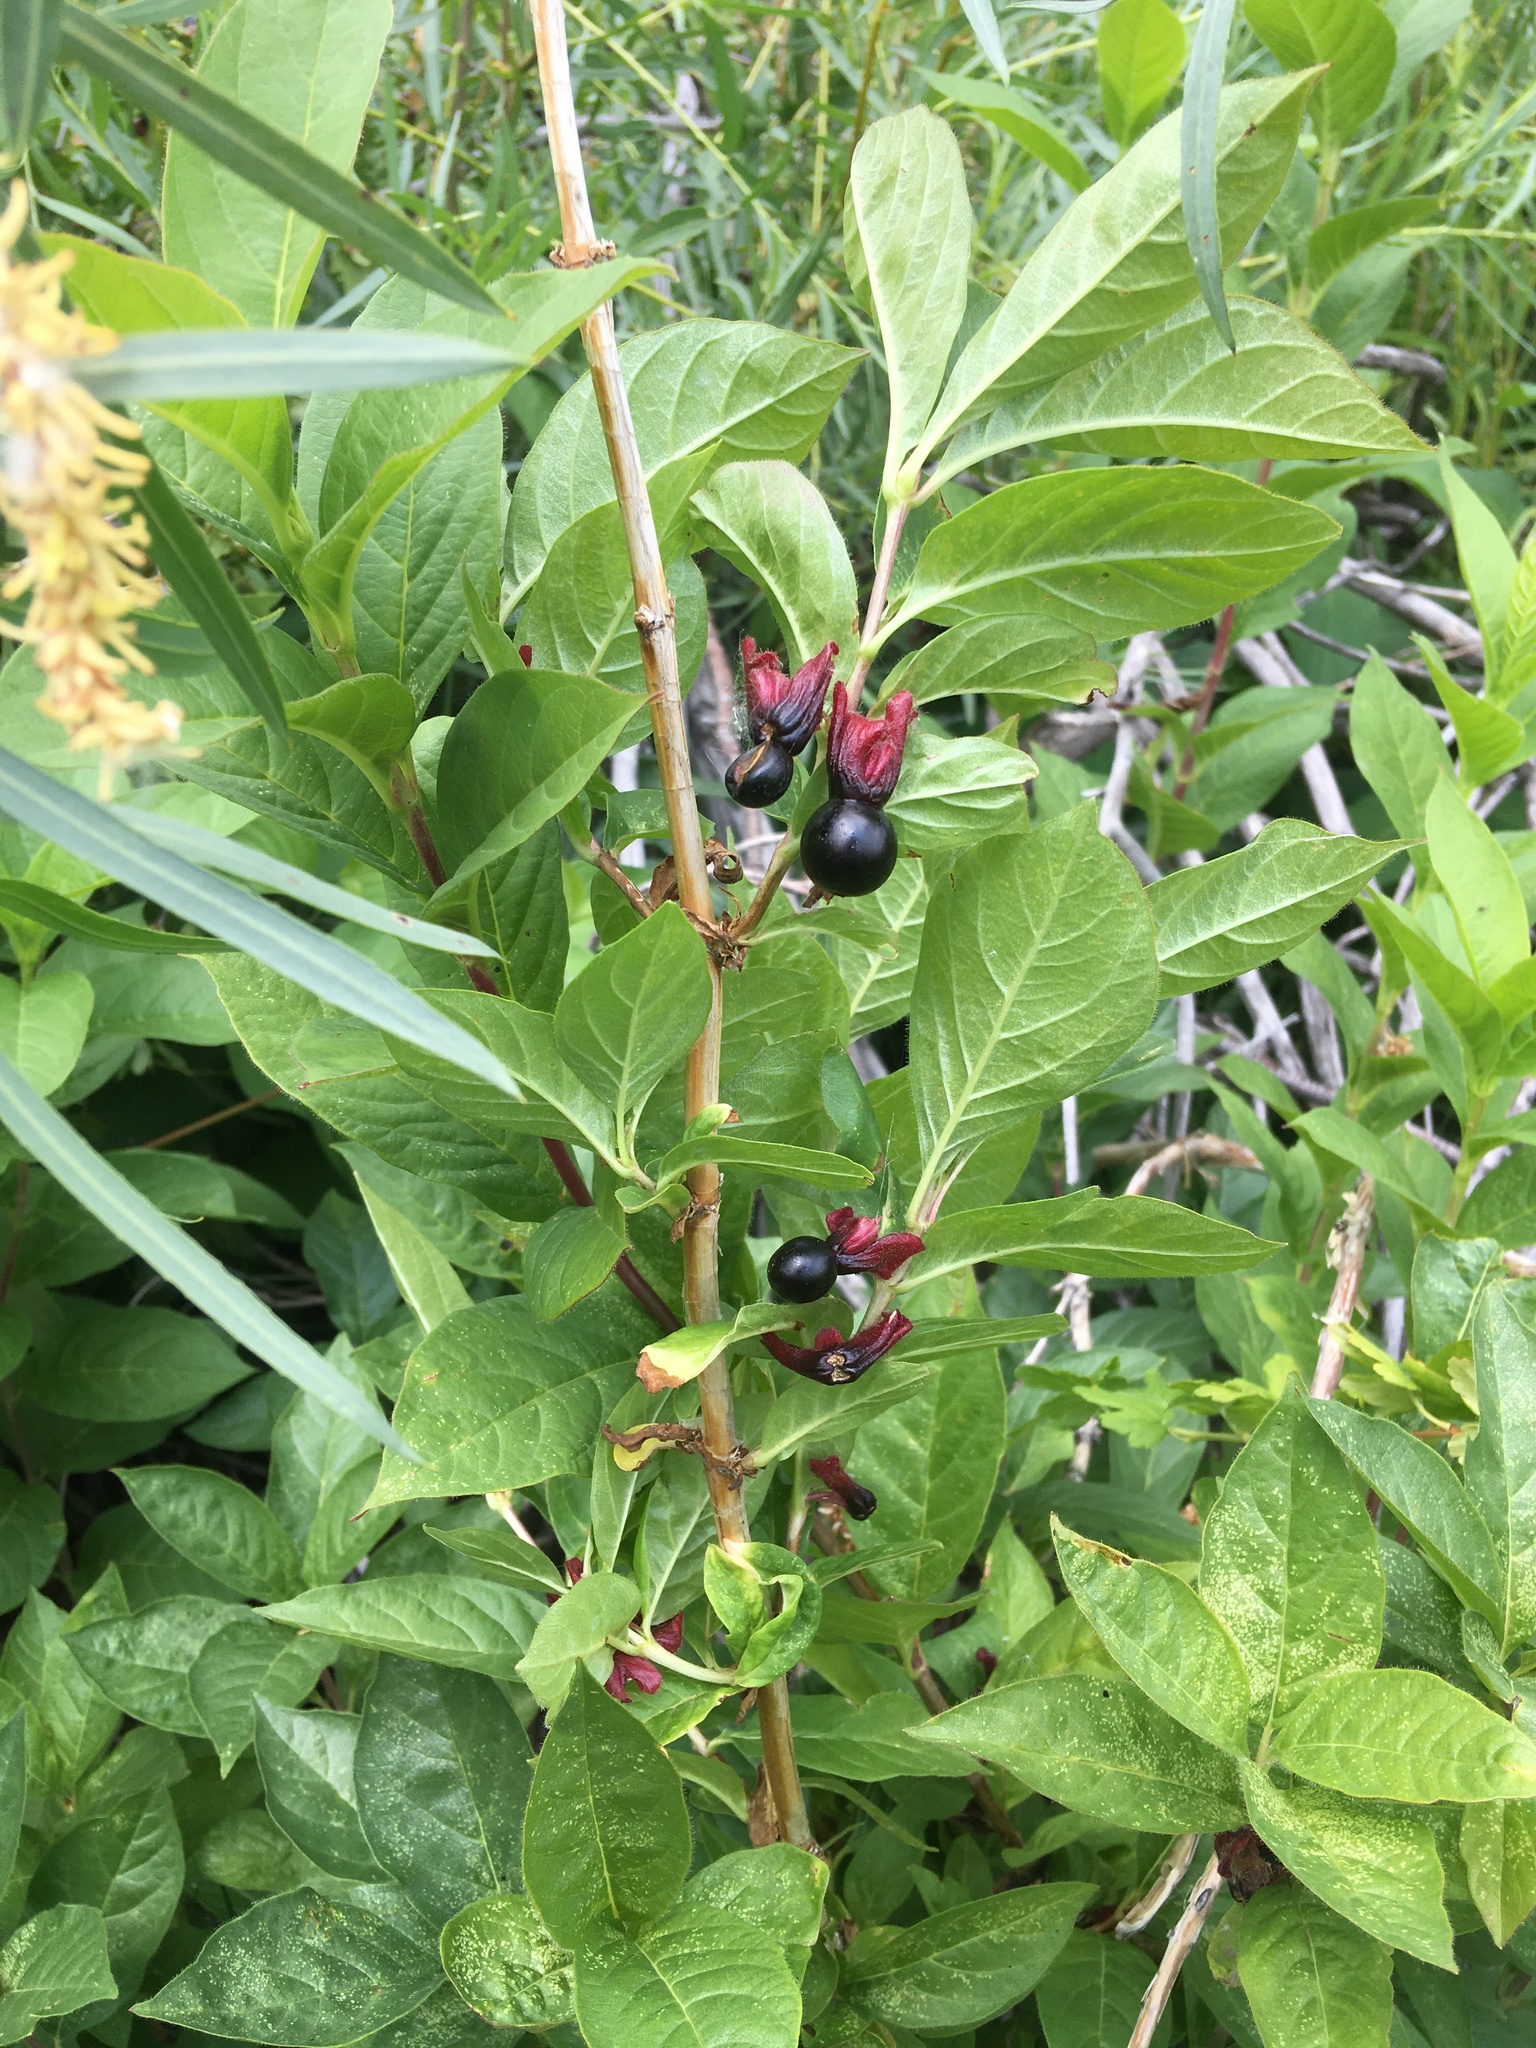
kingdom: Plantae
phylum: Tracheophyta
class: Magnoliopsida
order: Dipsacales
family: Caprifoliaceae
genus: Lonicera
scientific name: Lonicera involucrata
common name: Californian honeysuckle
